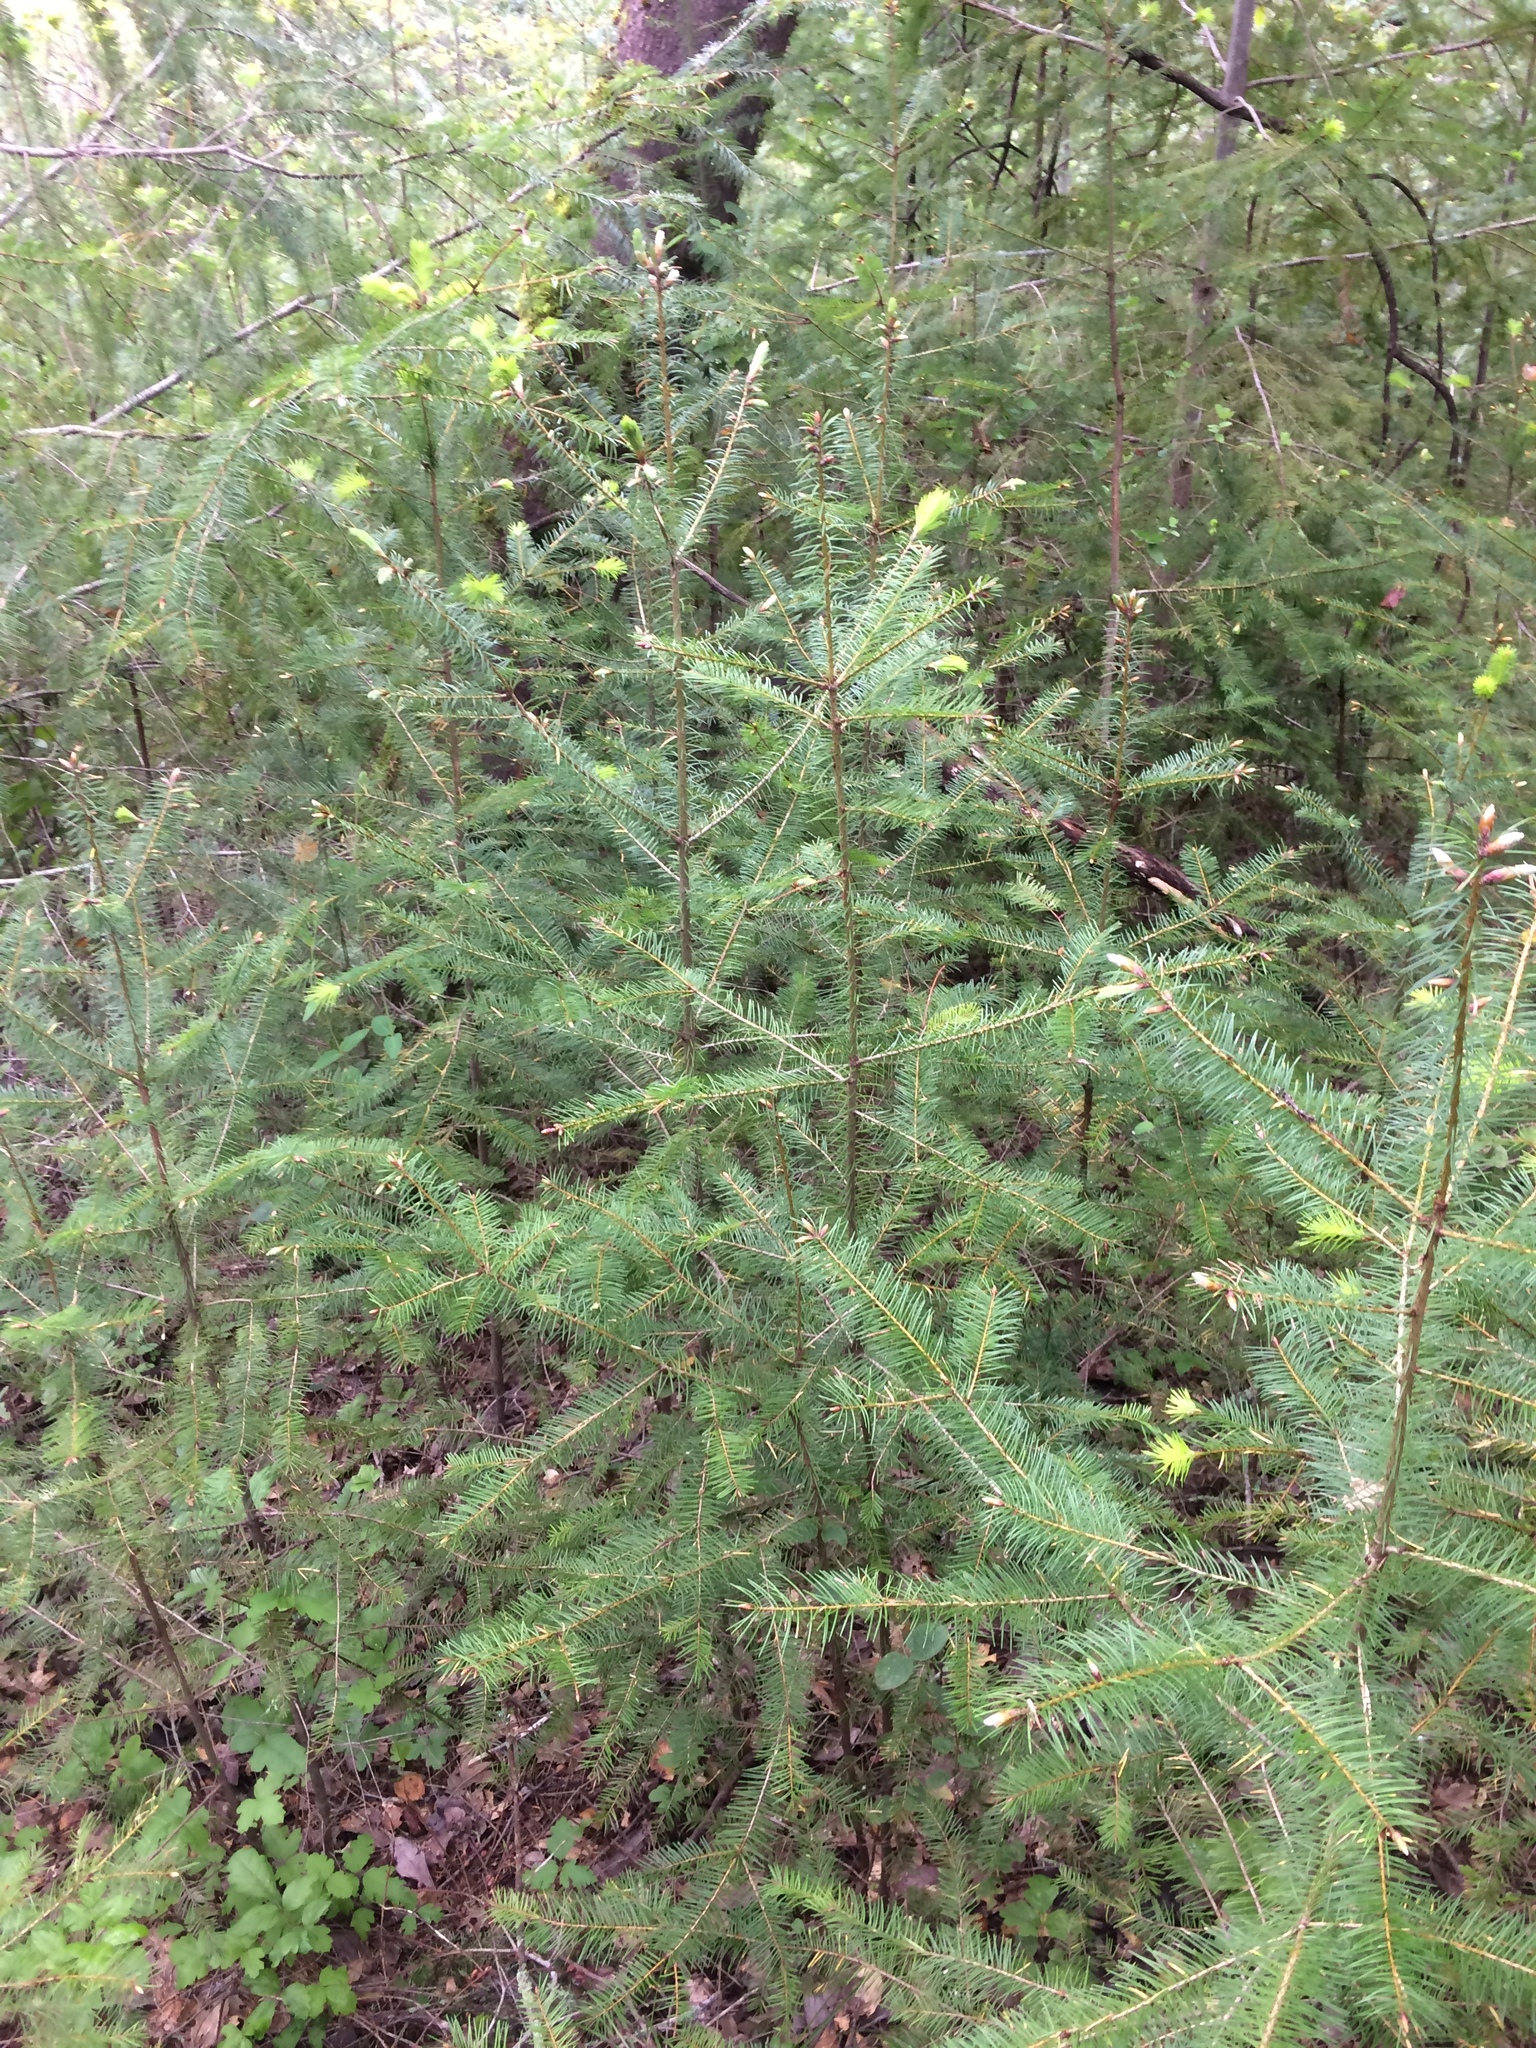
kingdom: Plantae
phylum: Tracheophyta
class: Pinopsida
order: Pinales
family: Pinaceae
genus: Pseudotsuga
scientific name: Pseudotsuga menziesii
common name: Douglas fir
